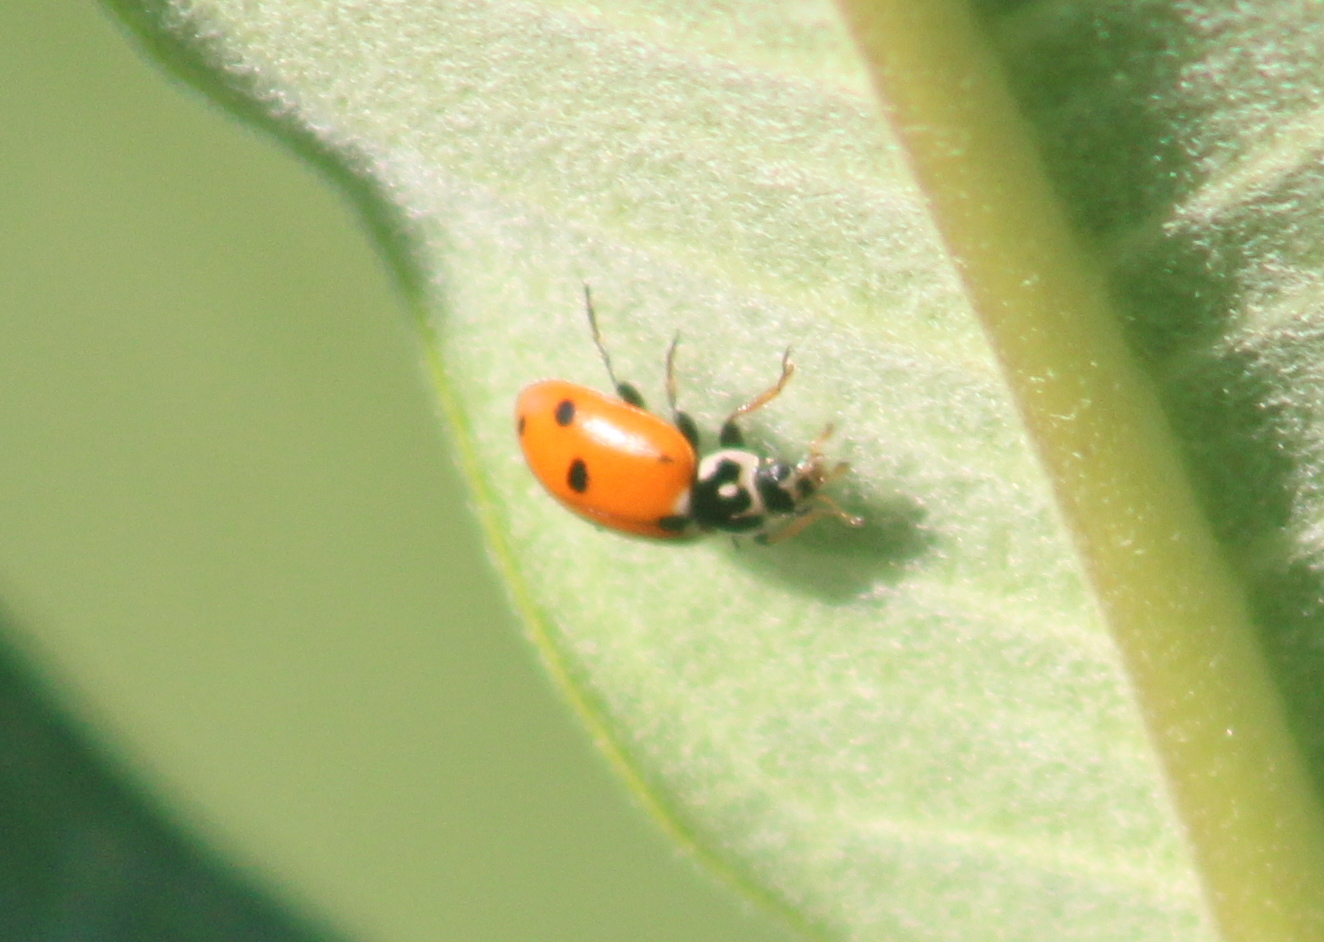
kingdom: Animalia
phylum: Arthropoda
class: Insecta
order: Coleoptera
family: Coccinellidae
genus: Hippodamia
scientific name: Hippodamia variegata
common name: Ladybird beetle
